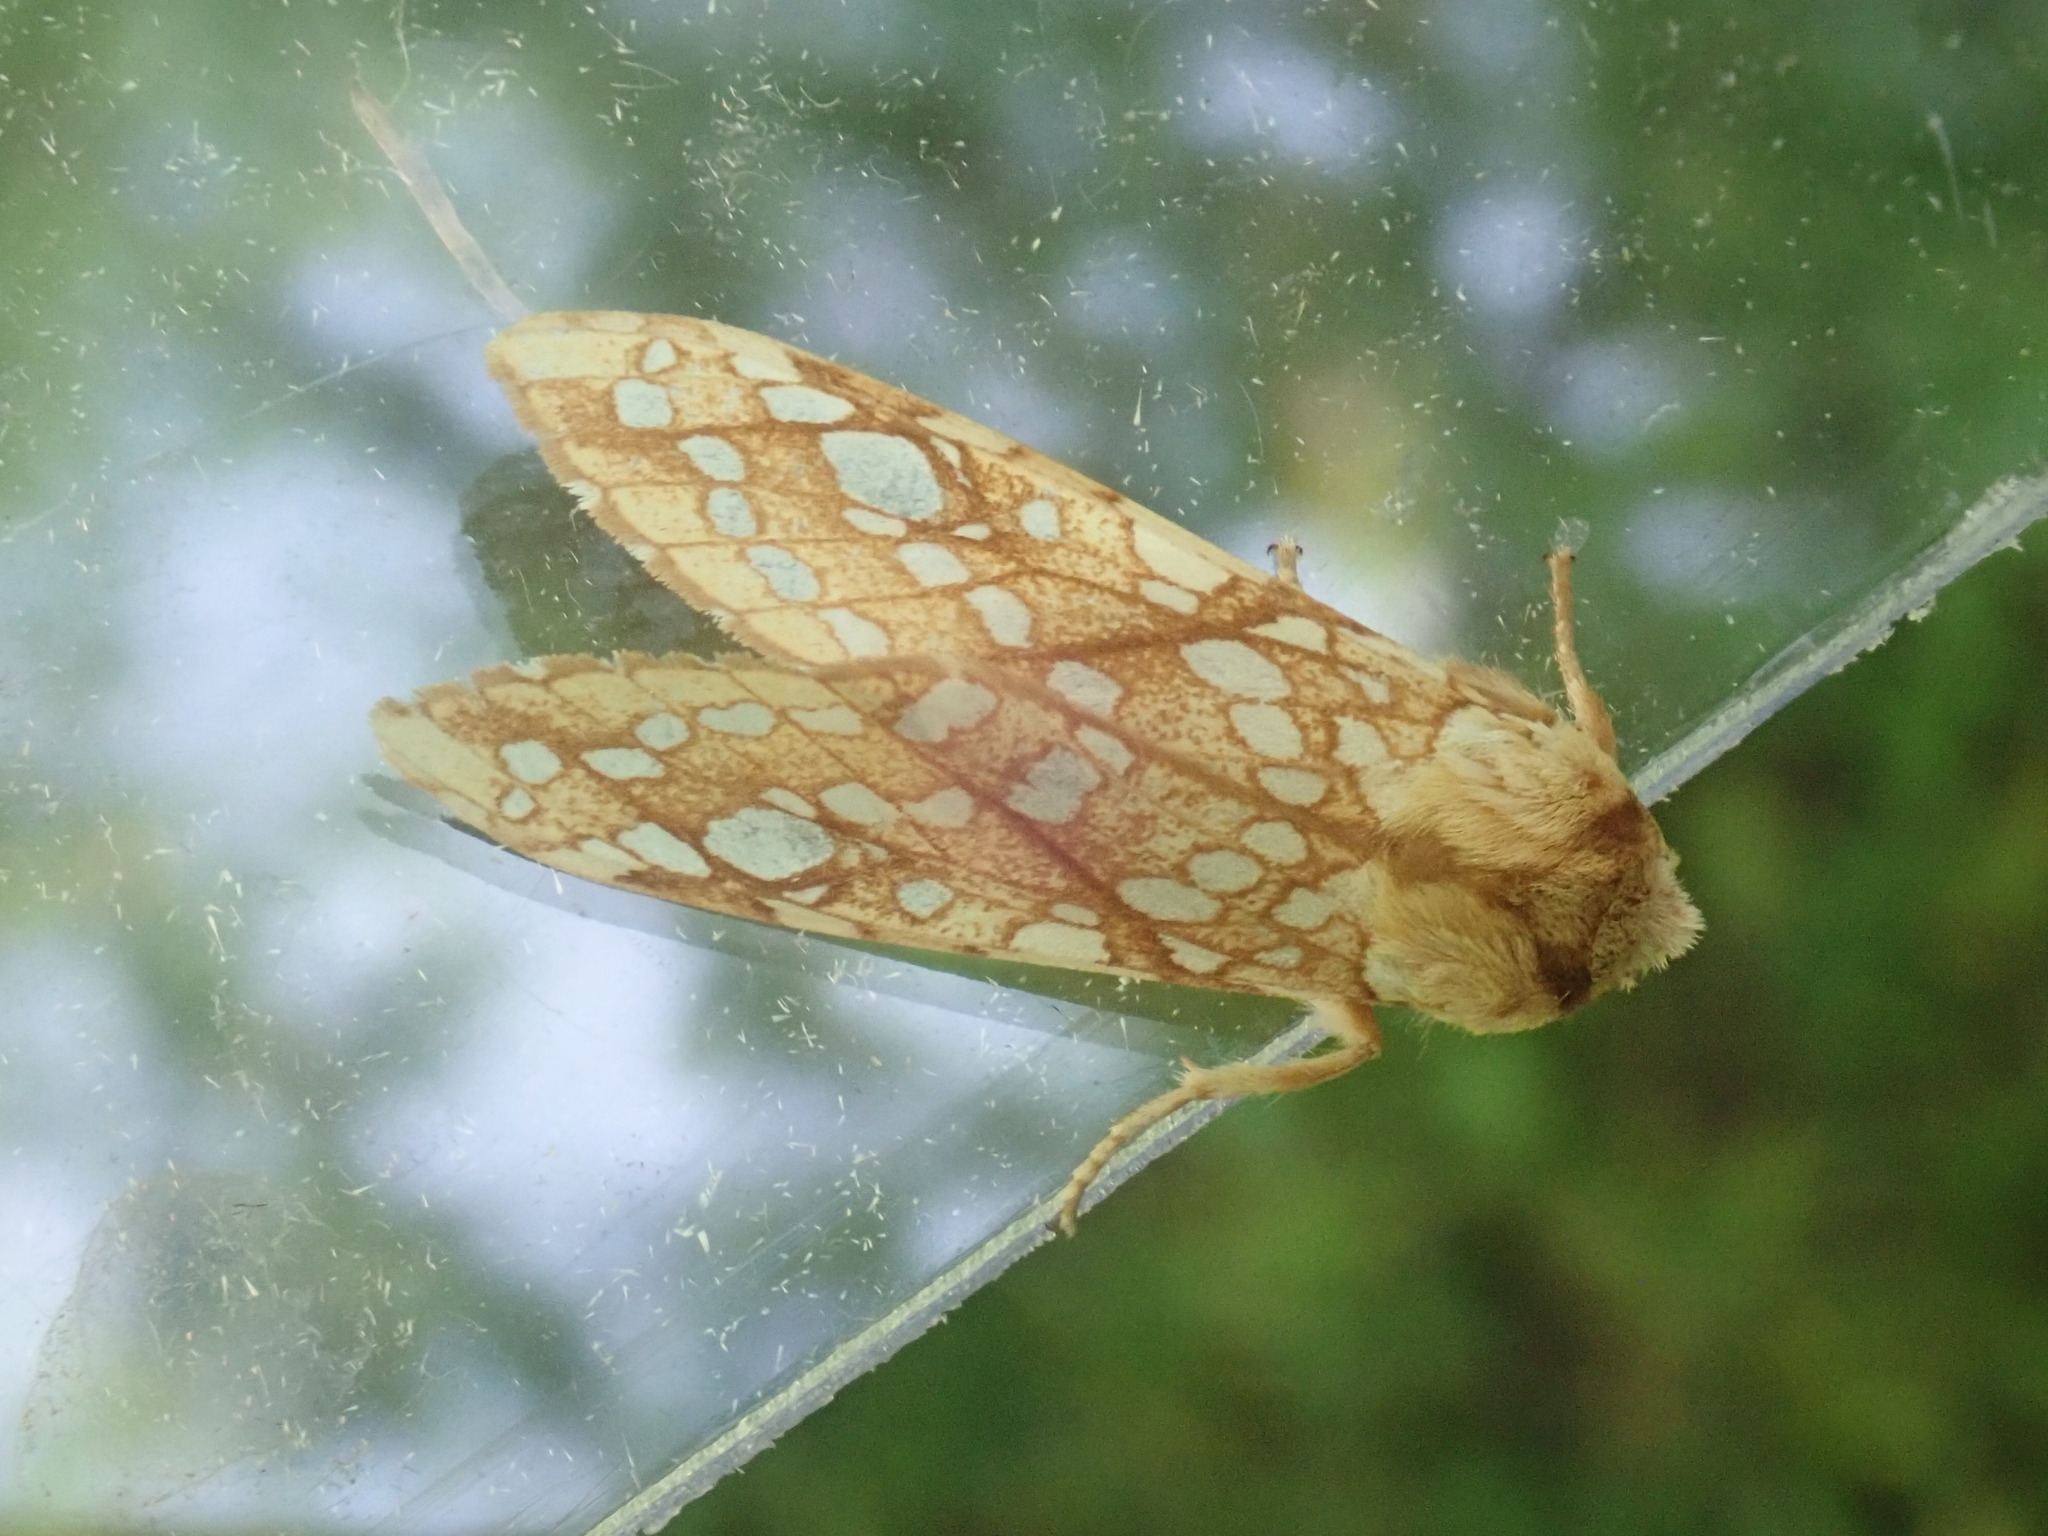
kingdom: Animalia
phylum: Arthropoda
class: Insecta
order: Lepidoptera
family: Erebidae
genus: Lophocampa
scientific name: Lophocampa caryae
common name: Hickory tussock moth
